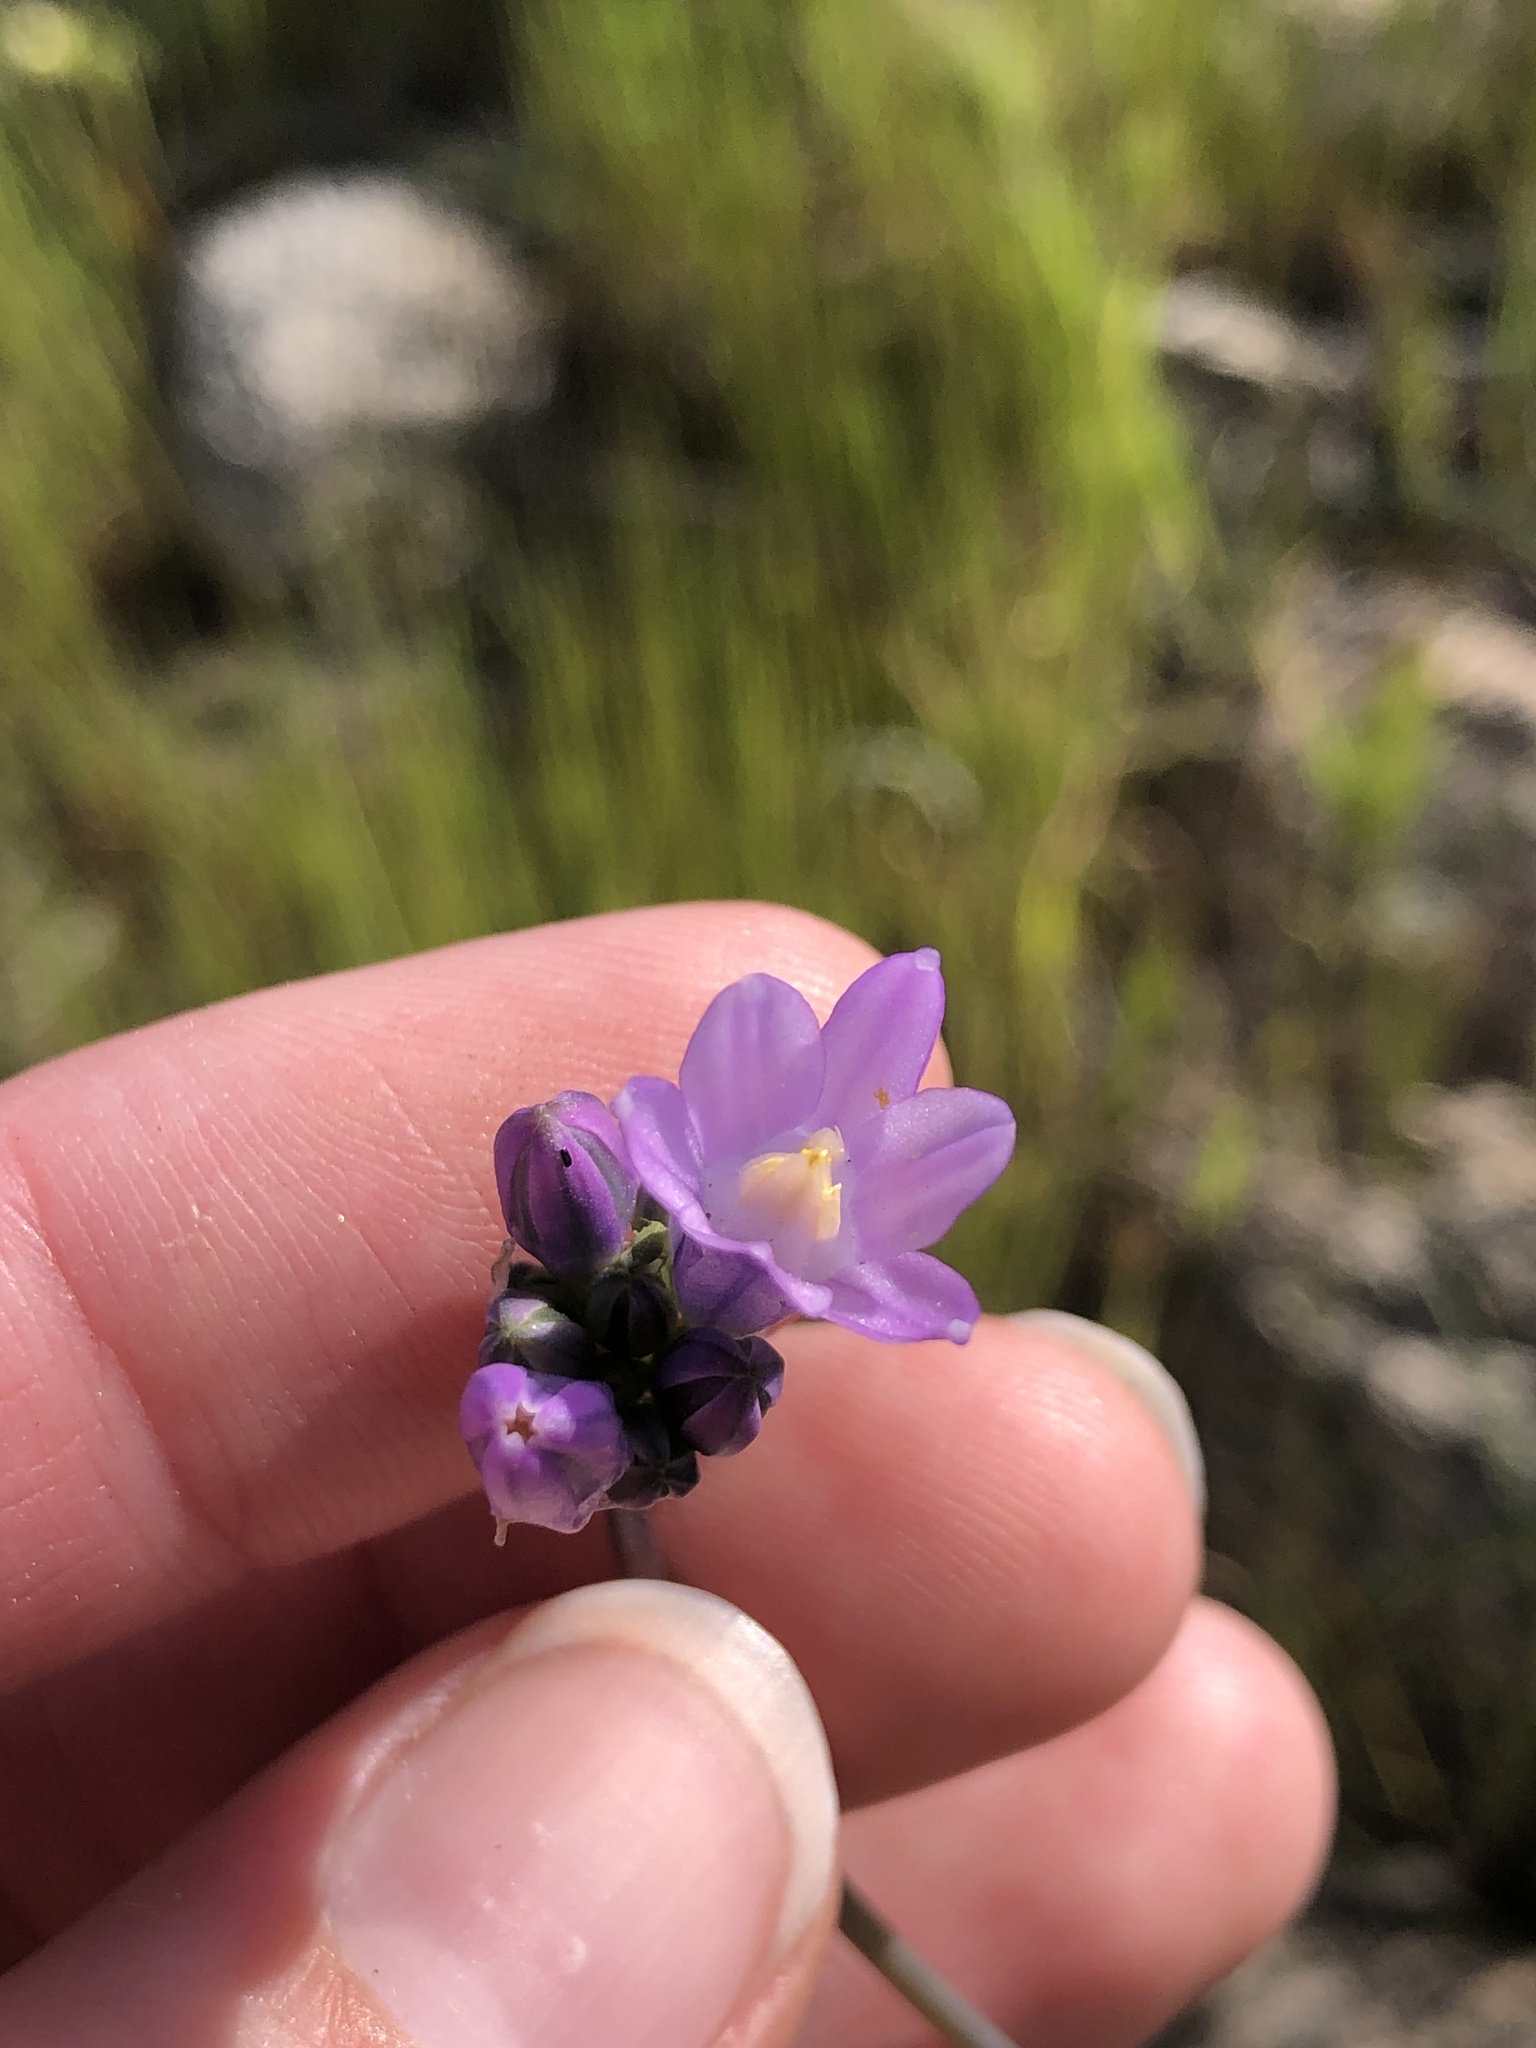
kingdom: Plantae
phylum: Tracheophyta
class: Liliopsida
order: Asparagales
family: Asparagaceae
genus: Dipterostemon
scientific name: Dipterostemon capitatus
